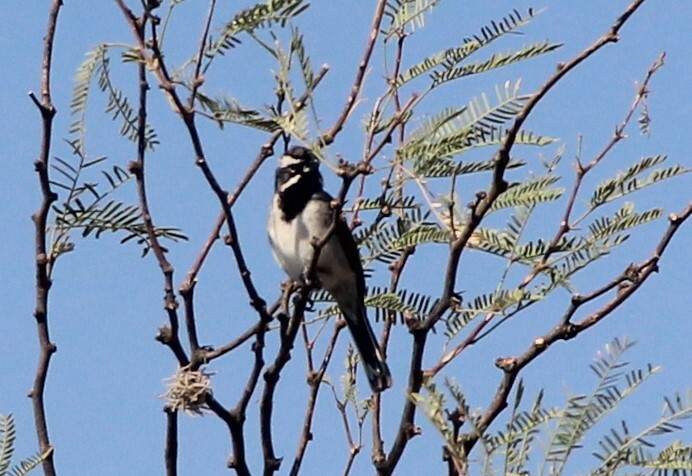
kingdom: Animalia
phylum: Chordata
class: Aves
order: Passeriformes
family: Passerellidae
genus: Amphispiza
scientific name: Amphispiza bilineata
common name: Black-throated sparrow
